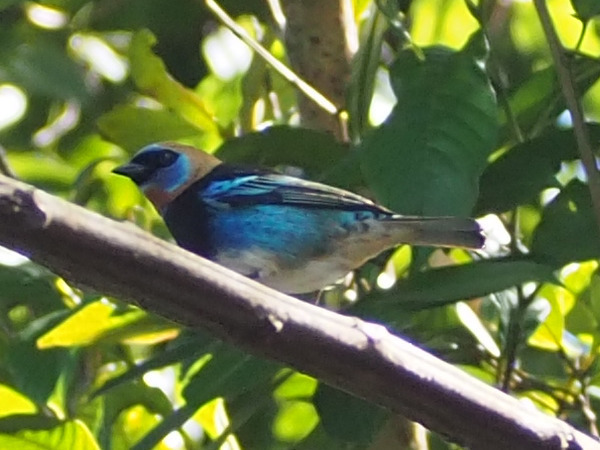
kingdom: Animalia
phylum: Chordata
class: Aves
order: Passeriformes
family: Thraupidae
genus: Stilpnia
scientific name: Stilpnia larvata
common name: Golden-hooded tanager
